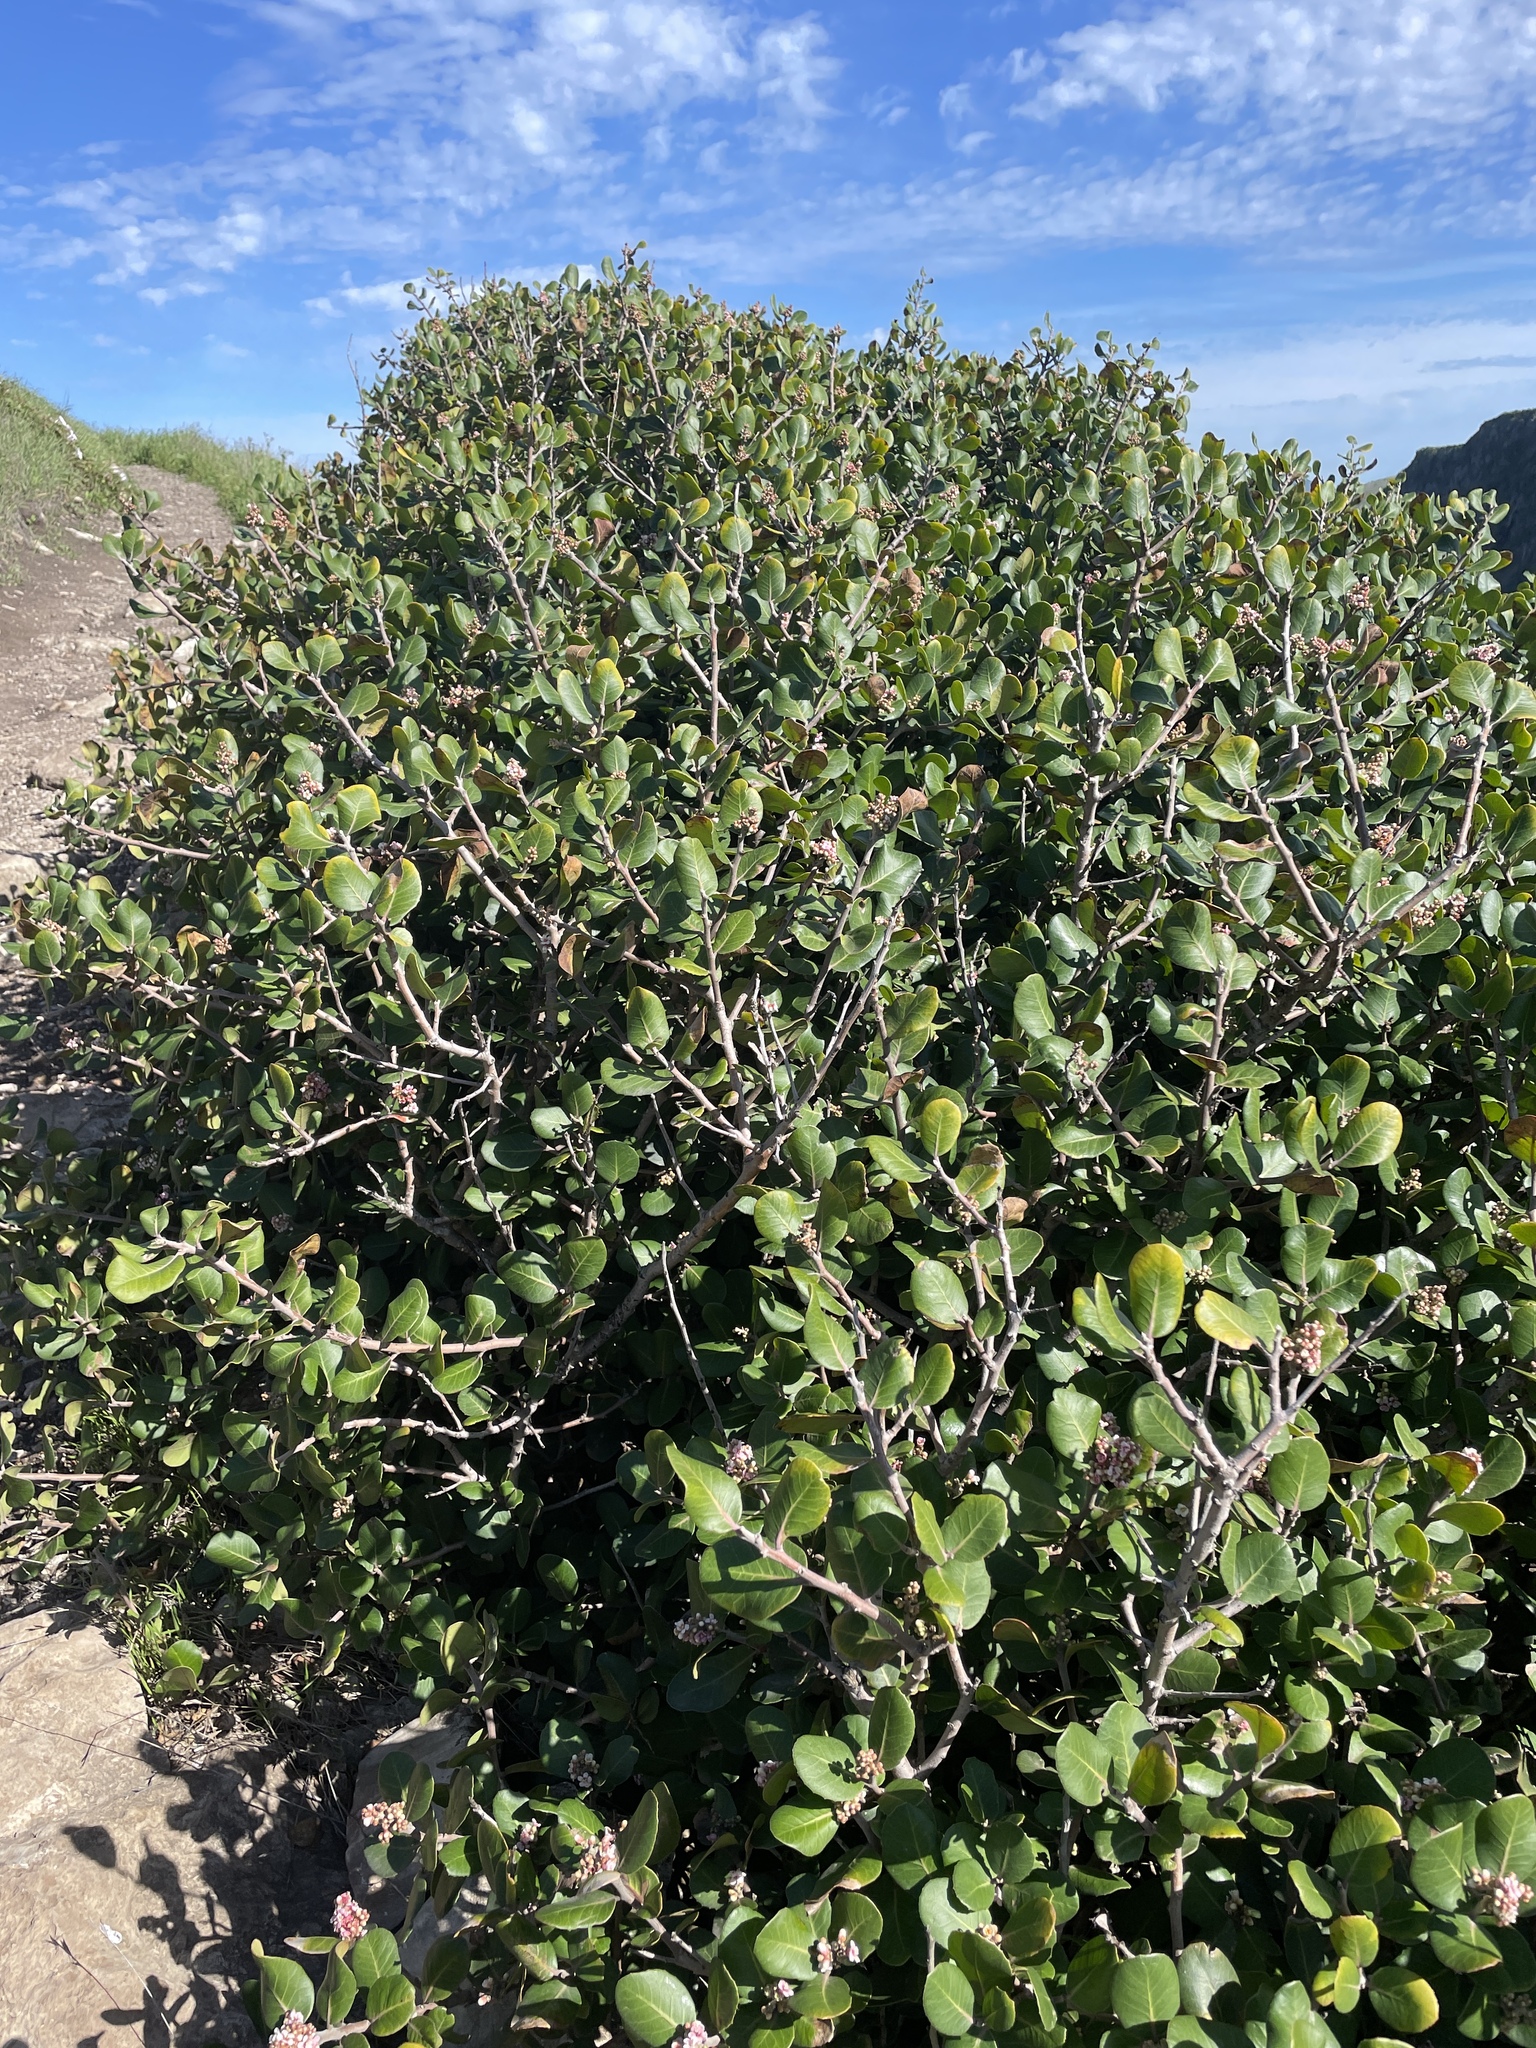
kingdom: Plantae
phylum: Tracheophyta
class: Magnoliopsida
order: Sapindales
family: Anacardiaceae
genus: Rhus
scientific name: Rhus integrifolia
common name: Lemonade sumac
